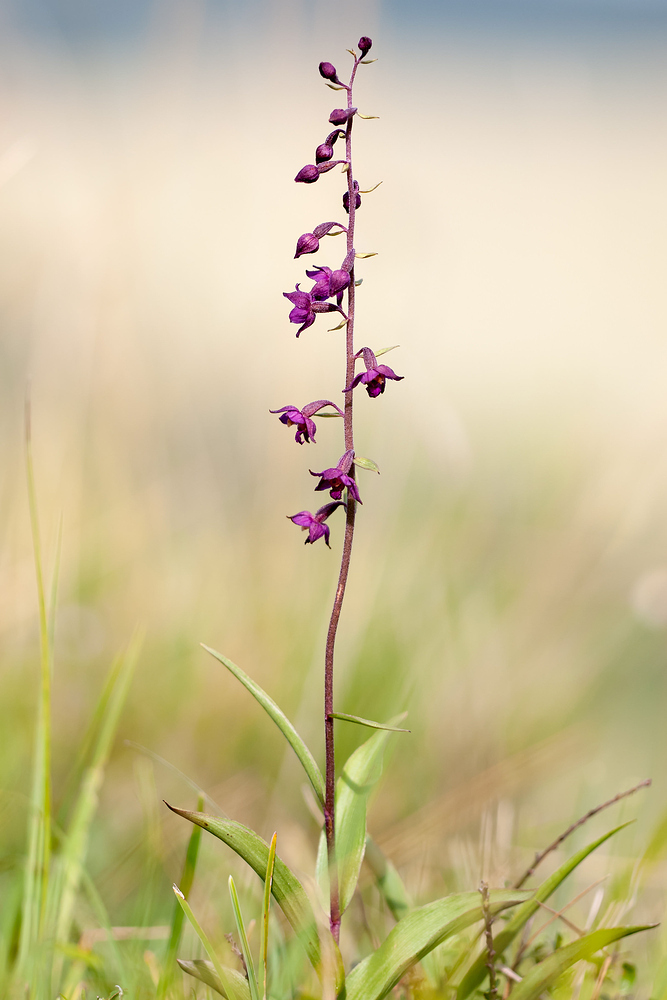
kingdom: Plantae
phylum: Tracheophyta
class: Liliopsida
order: Asparagales
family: Orchidaceae
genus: Epipactis
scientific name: Epipactis atrorubens
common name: Dark-red helleborine
